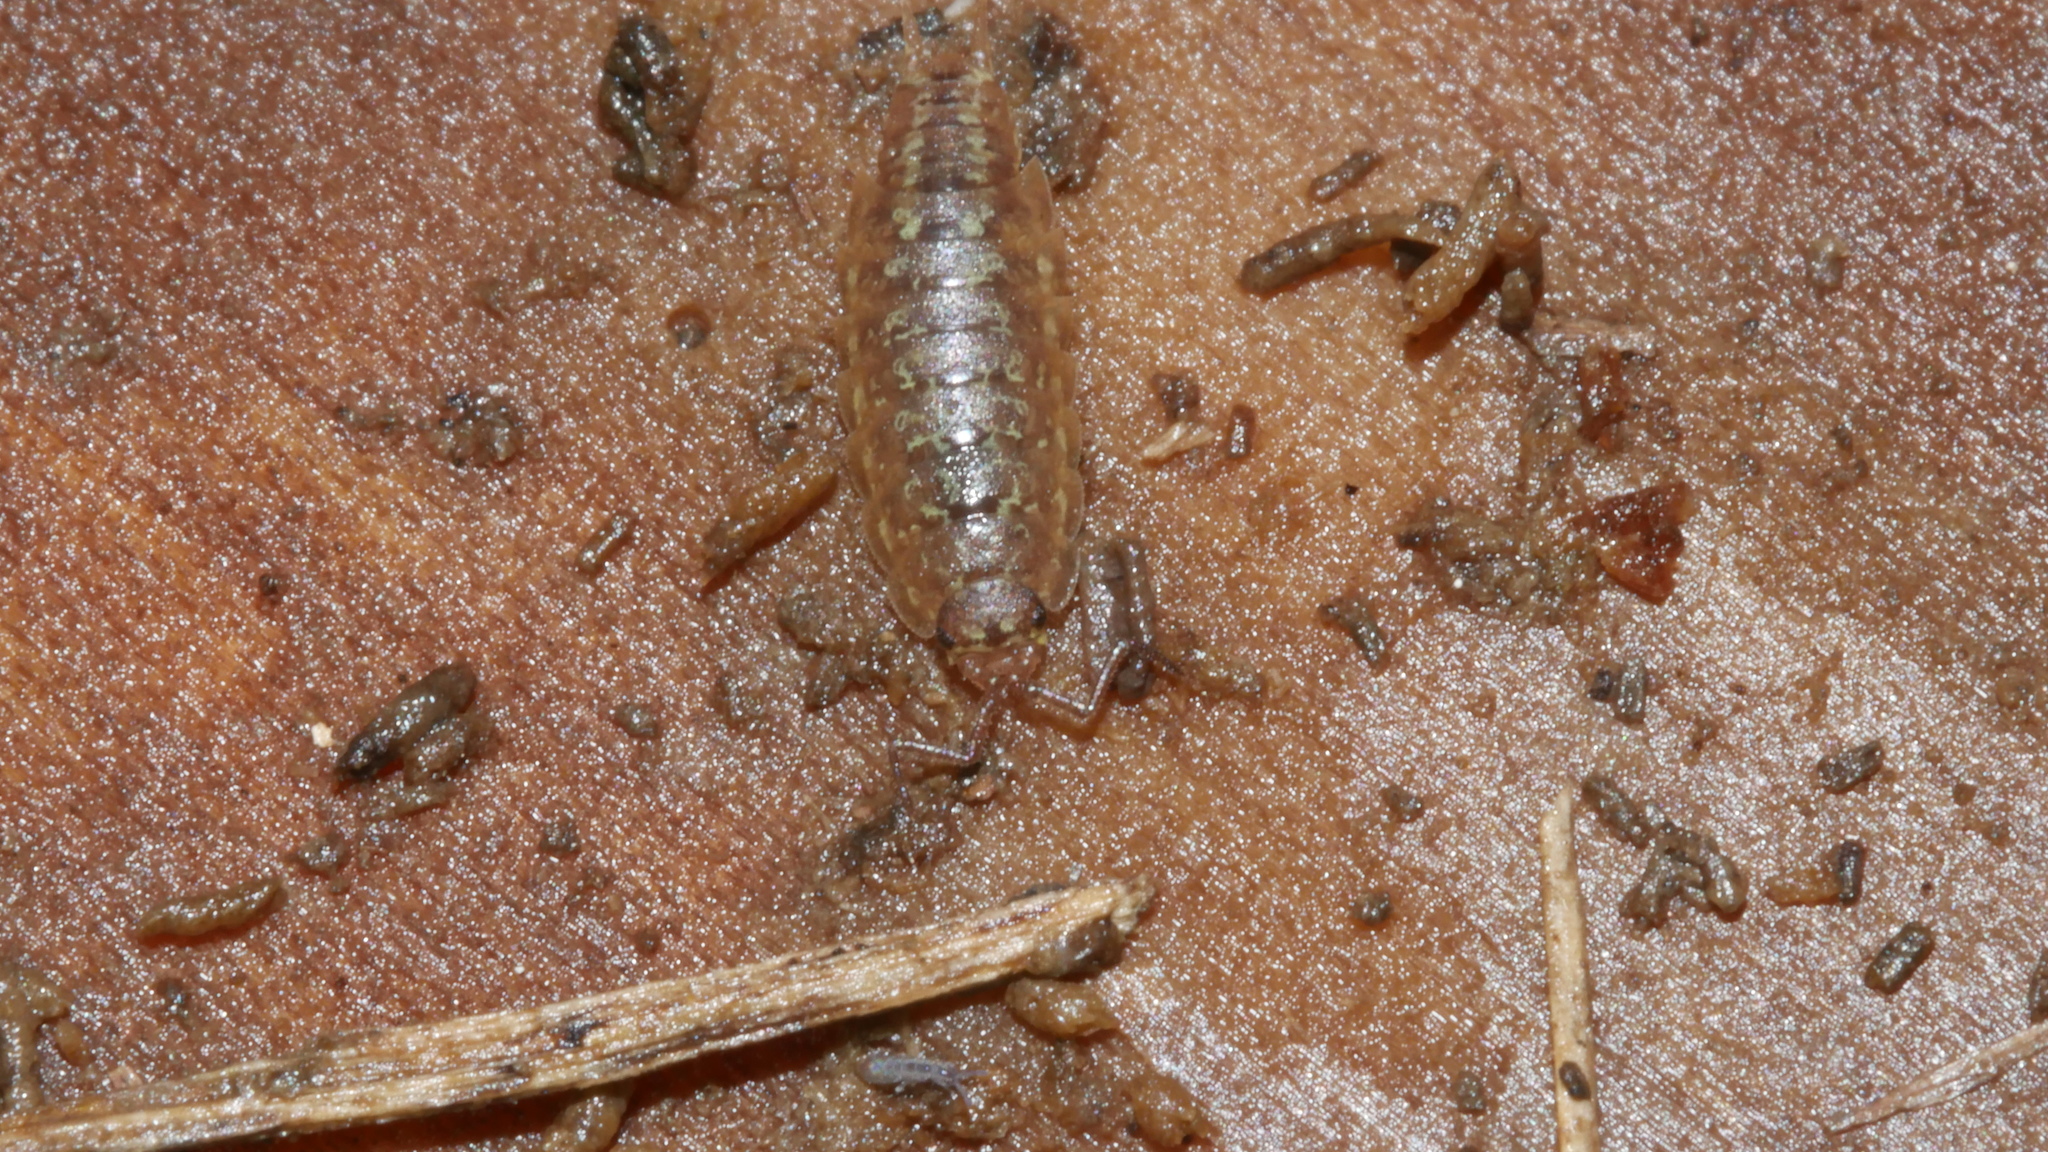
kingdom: Animalia
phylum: Arthropoda
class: Malacostraca
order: Isopoda
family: Halophilosciidae
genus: Littorophiloscia
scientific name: Littorophiloscia vittata
